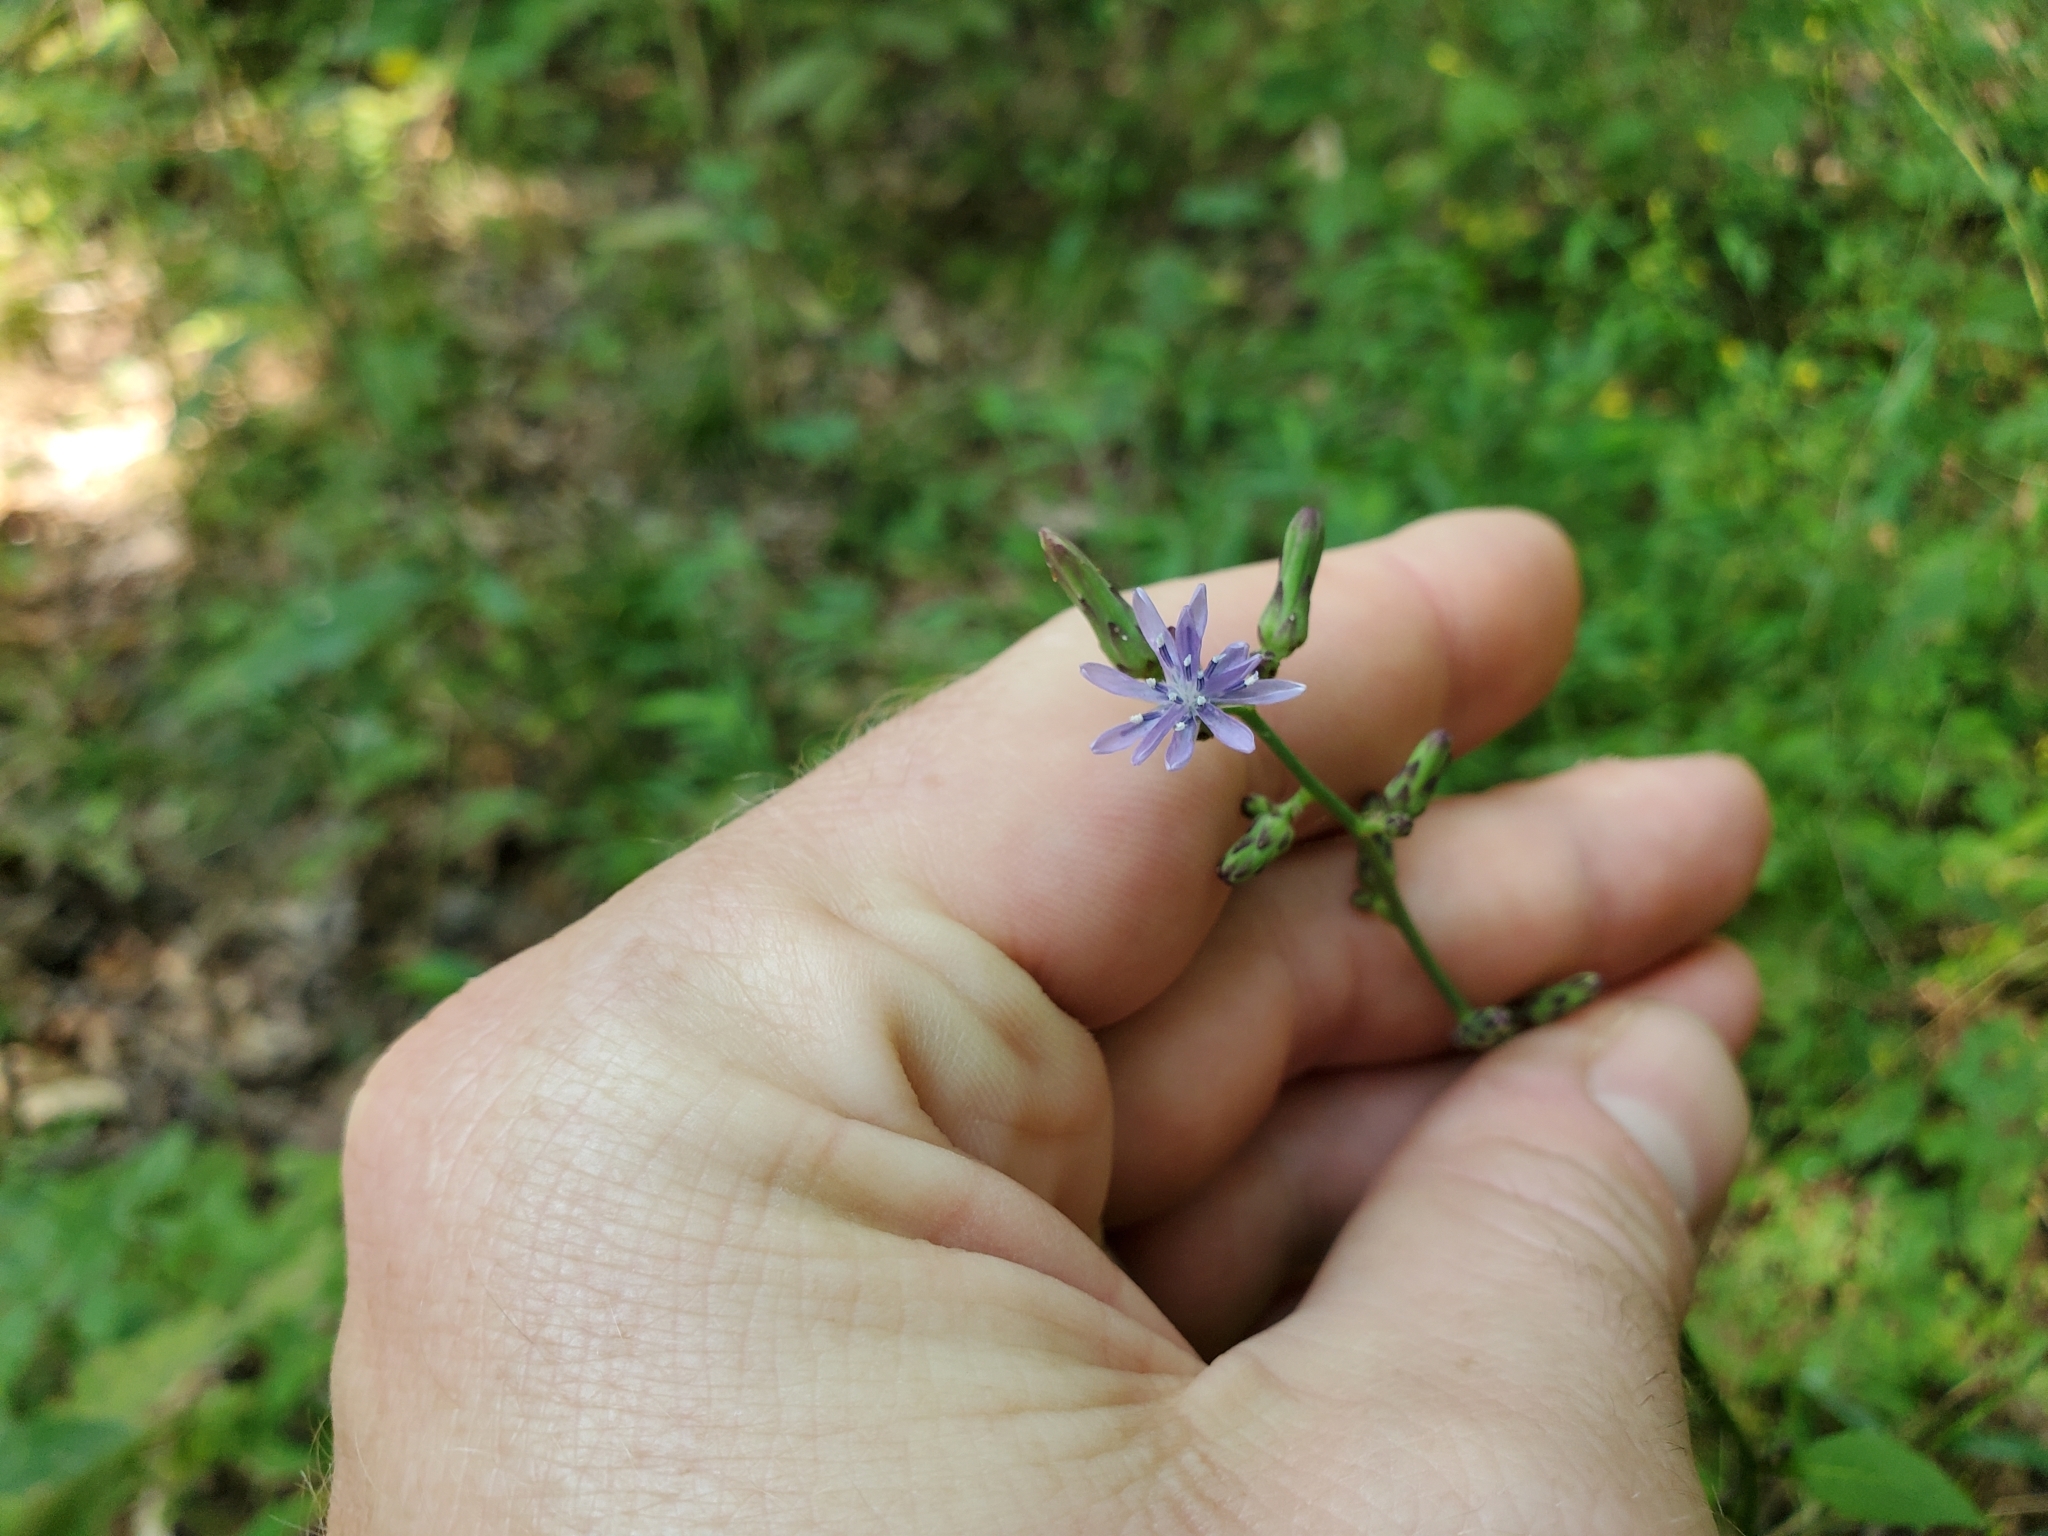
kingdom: Plantae
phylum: Tracheophyta
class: Magnoliopsida
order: Asterales
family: Asteraceae
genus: Lactuca
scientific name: Lactuca floridana
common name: Woodland lettuce
